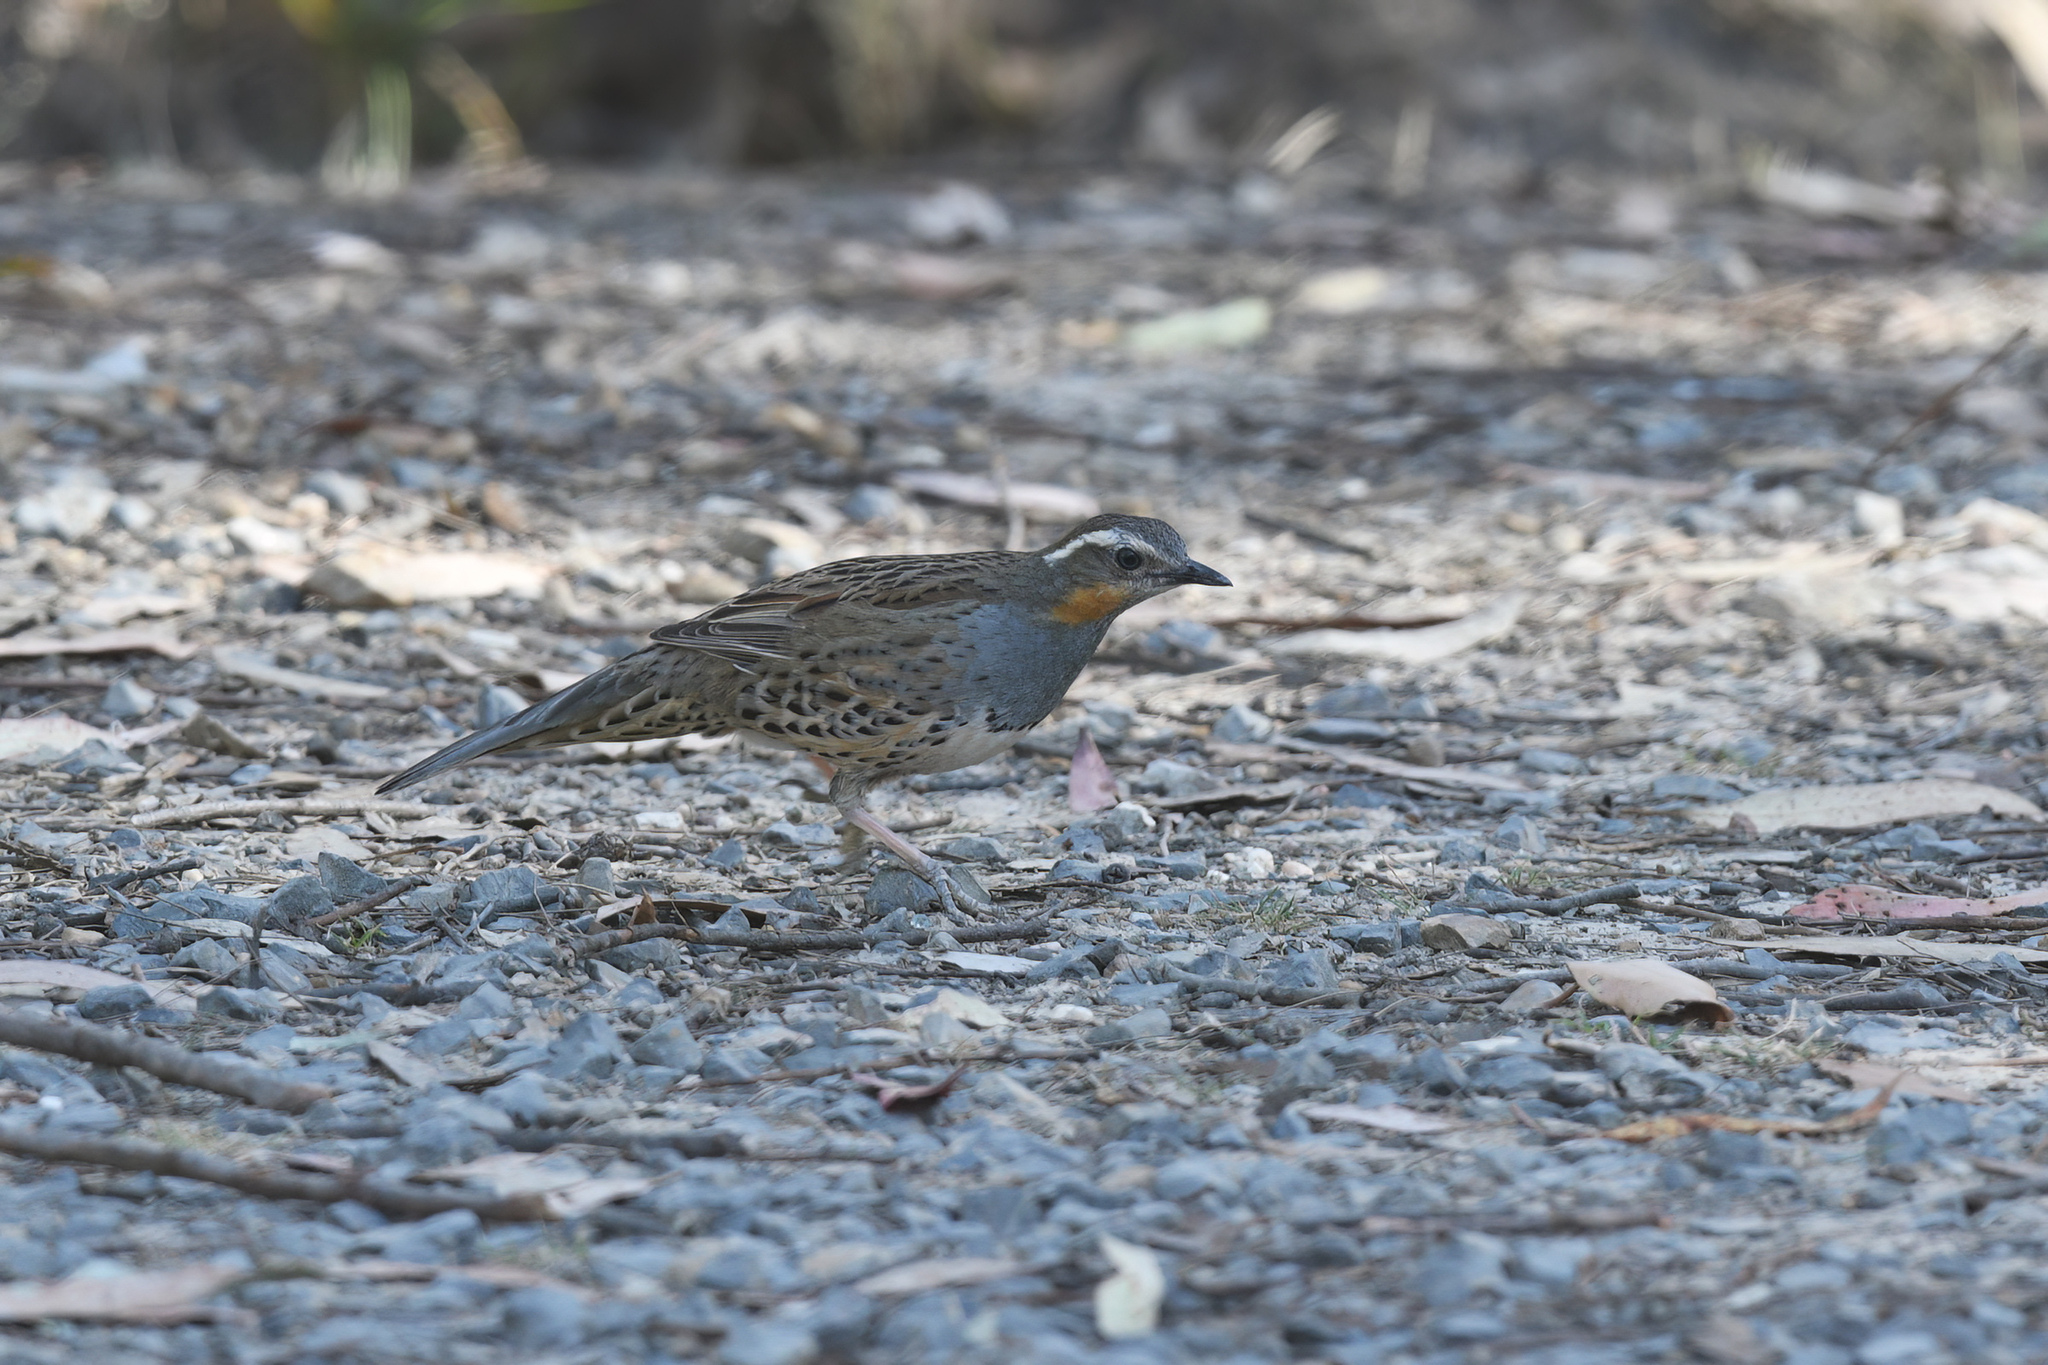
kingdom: Animalia
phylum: Chordata
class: Aves
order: Passeriformes
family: Psophodidae
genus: Cinclosoma
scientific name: Cinclosoma punctatum
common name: Spotted quail-thrush
